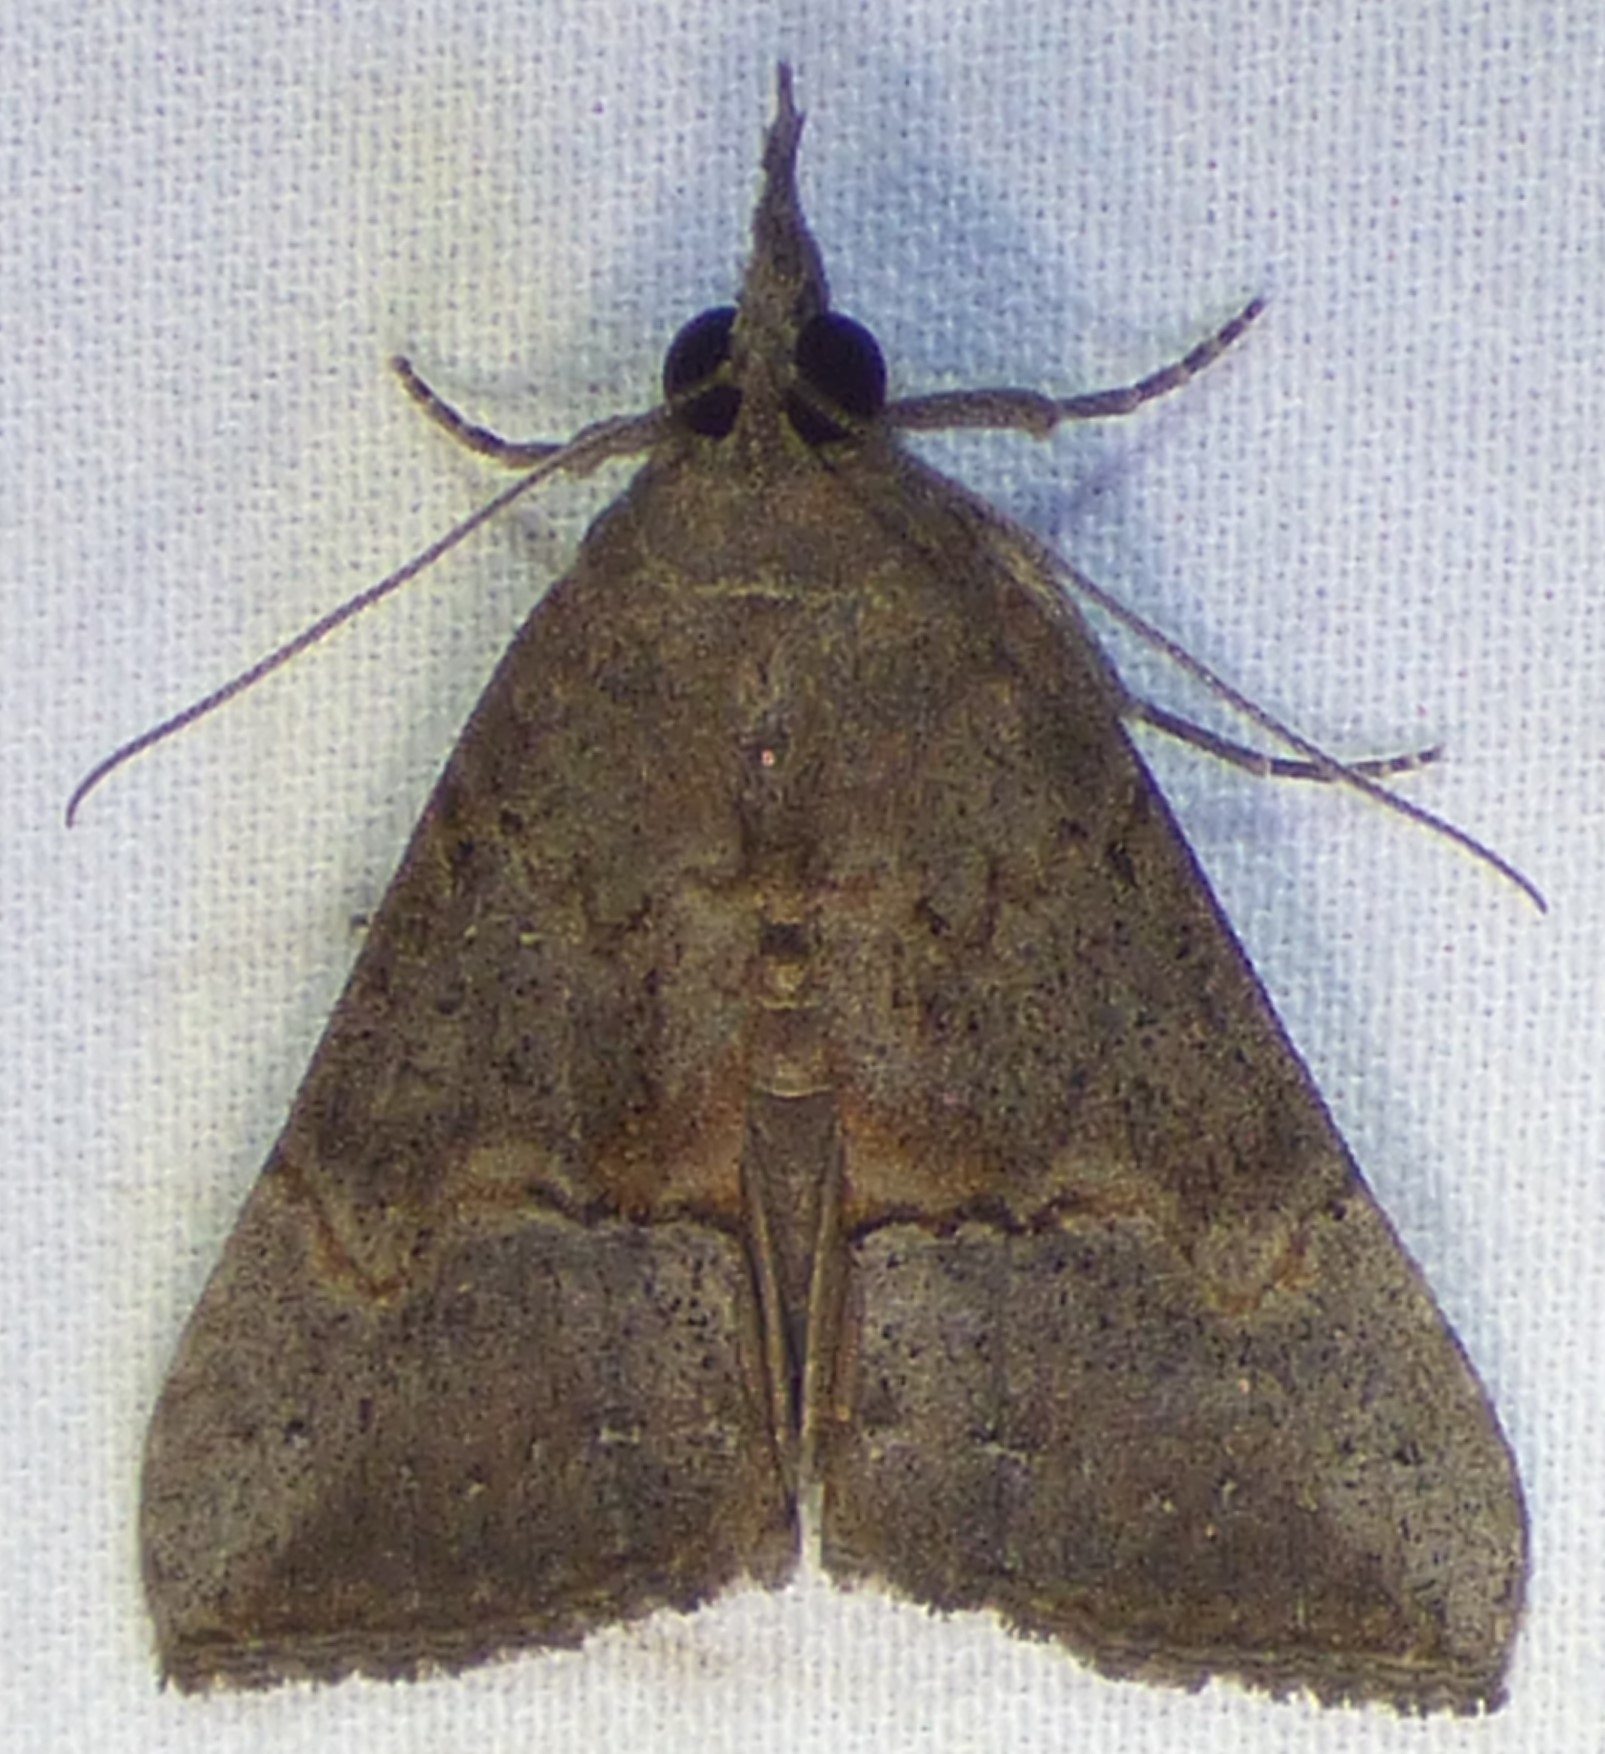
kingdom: Animalia
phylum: Arthropoda
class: Insecta
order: Lepidoptera
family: Erebidae
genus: Hypena
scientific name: Hypena scabra
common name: Green cloverworm
